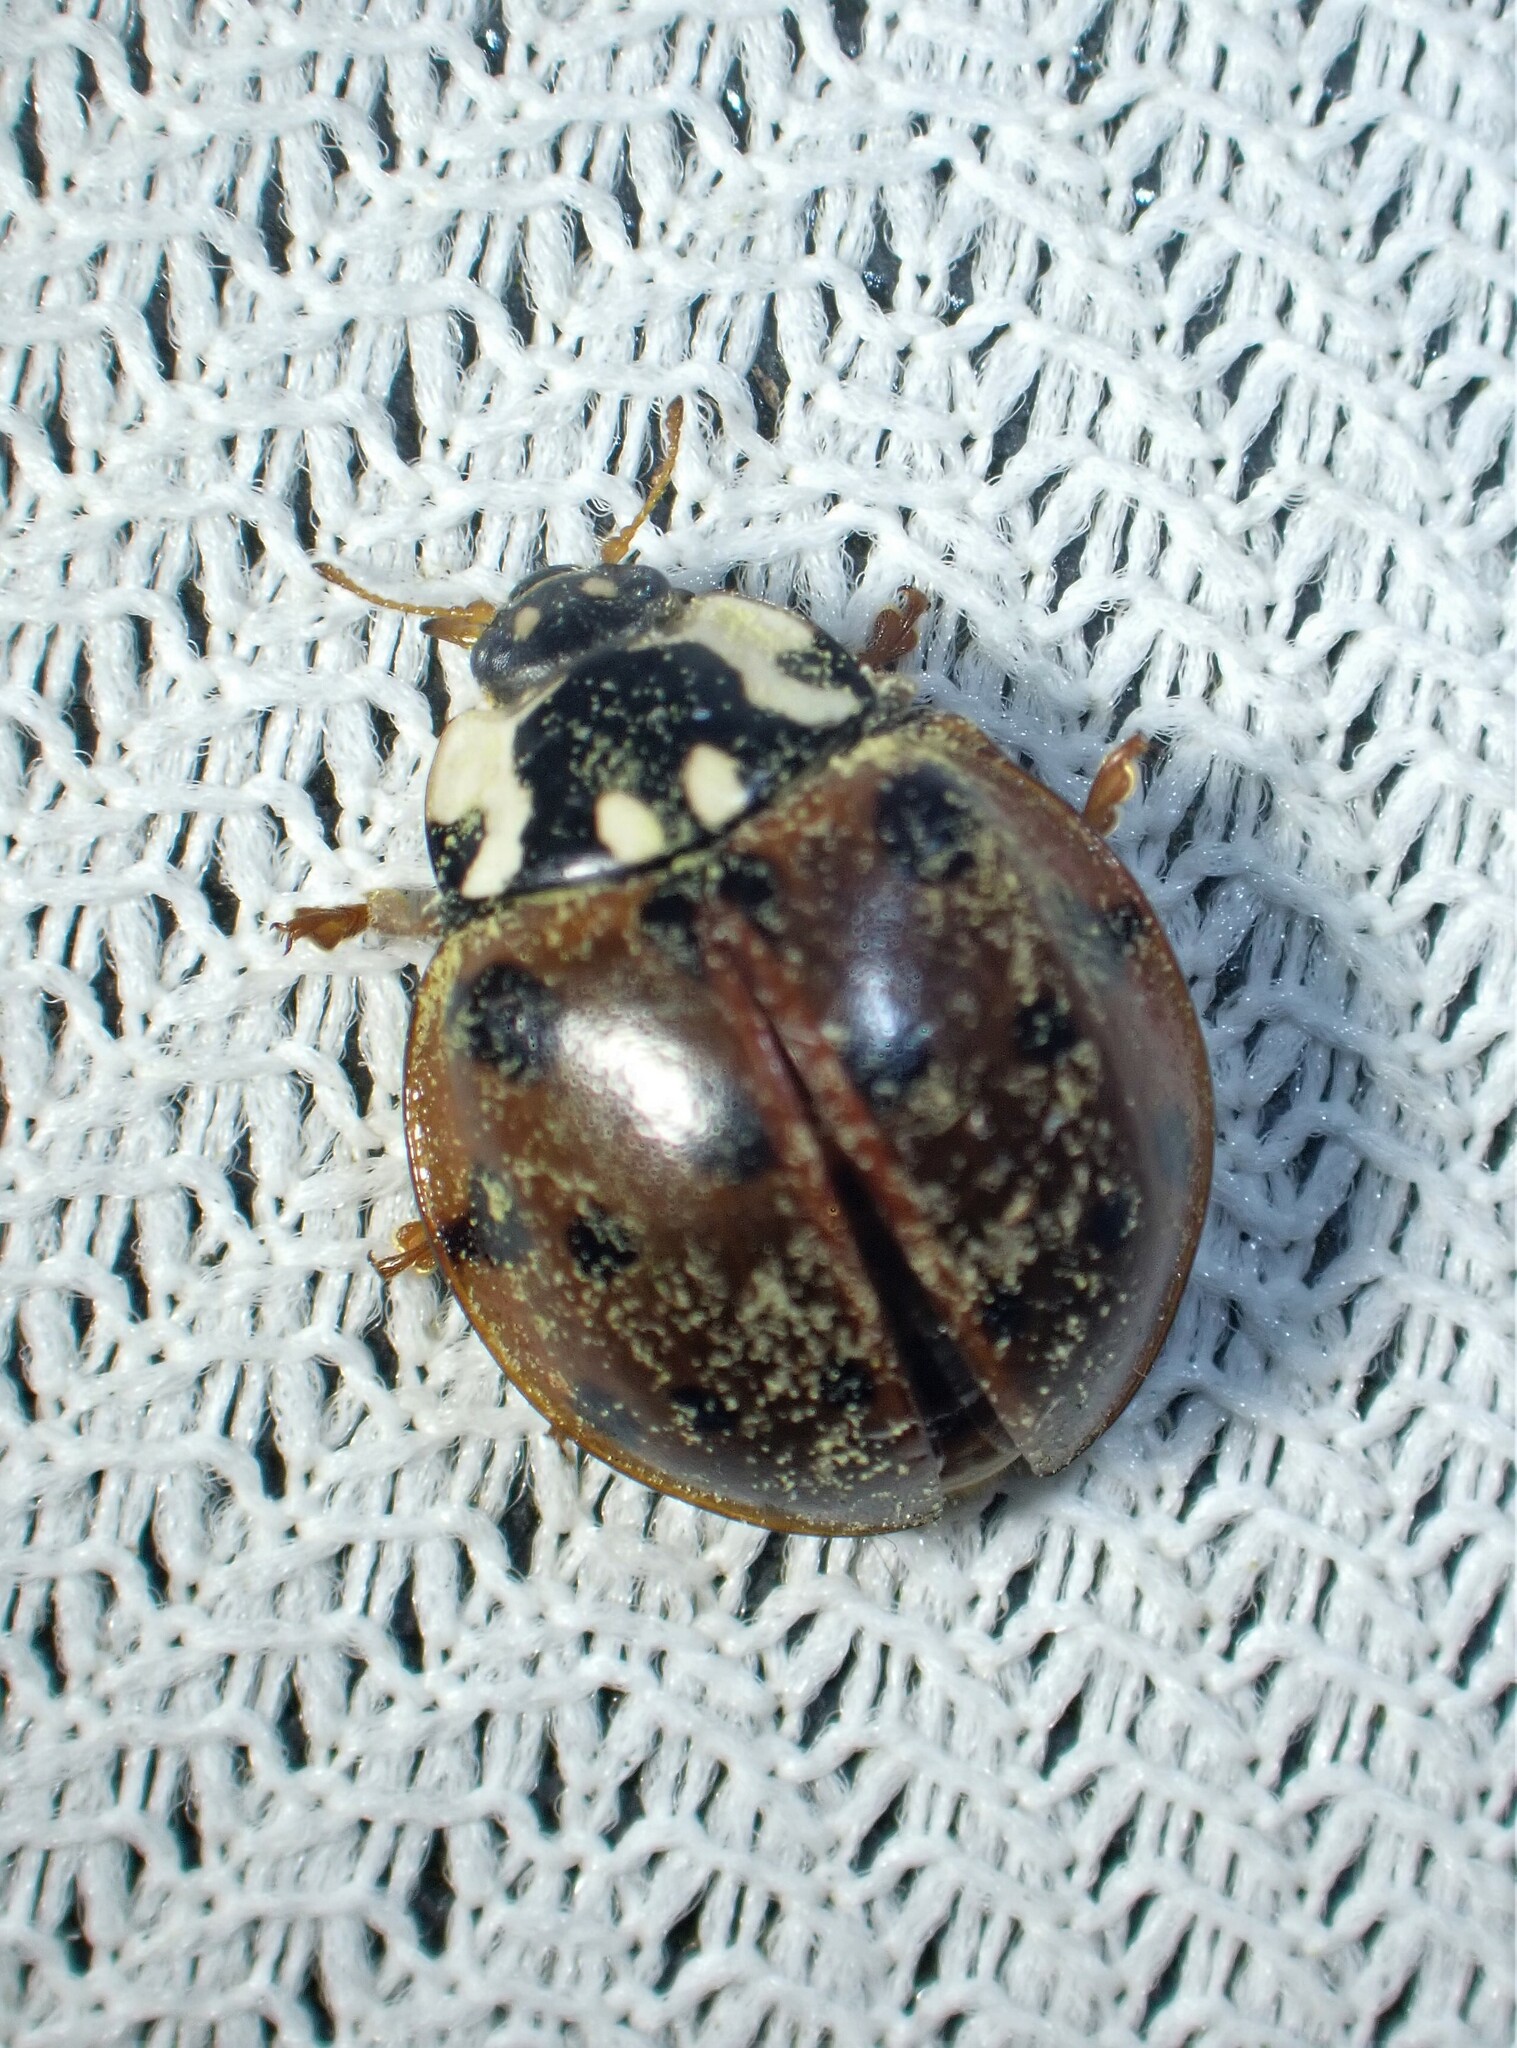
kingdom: Animalia
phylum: Arthropoda
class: Insecta
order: Coleoptera
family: Coccinellidae
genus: Anatis
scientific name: Anatis labiculata
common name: Fifteen-spotted lady beetle
